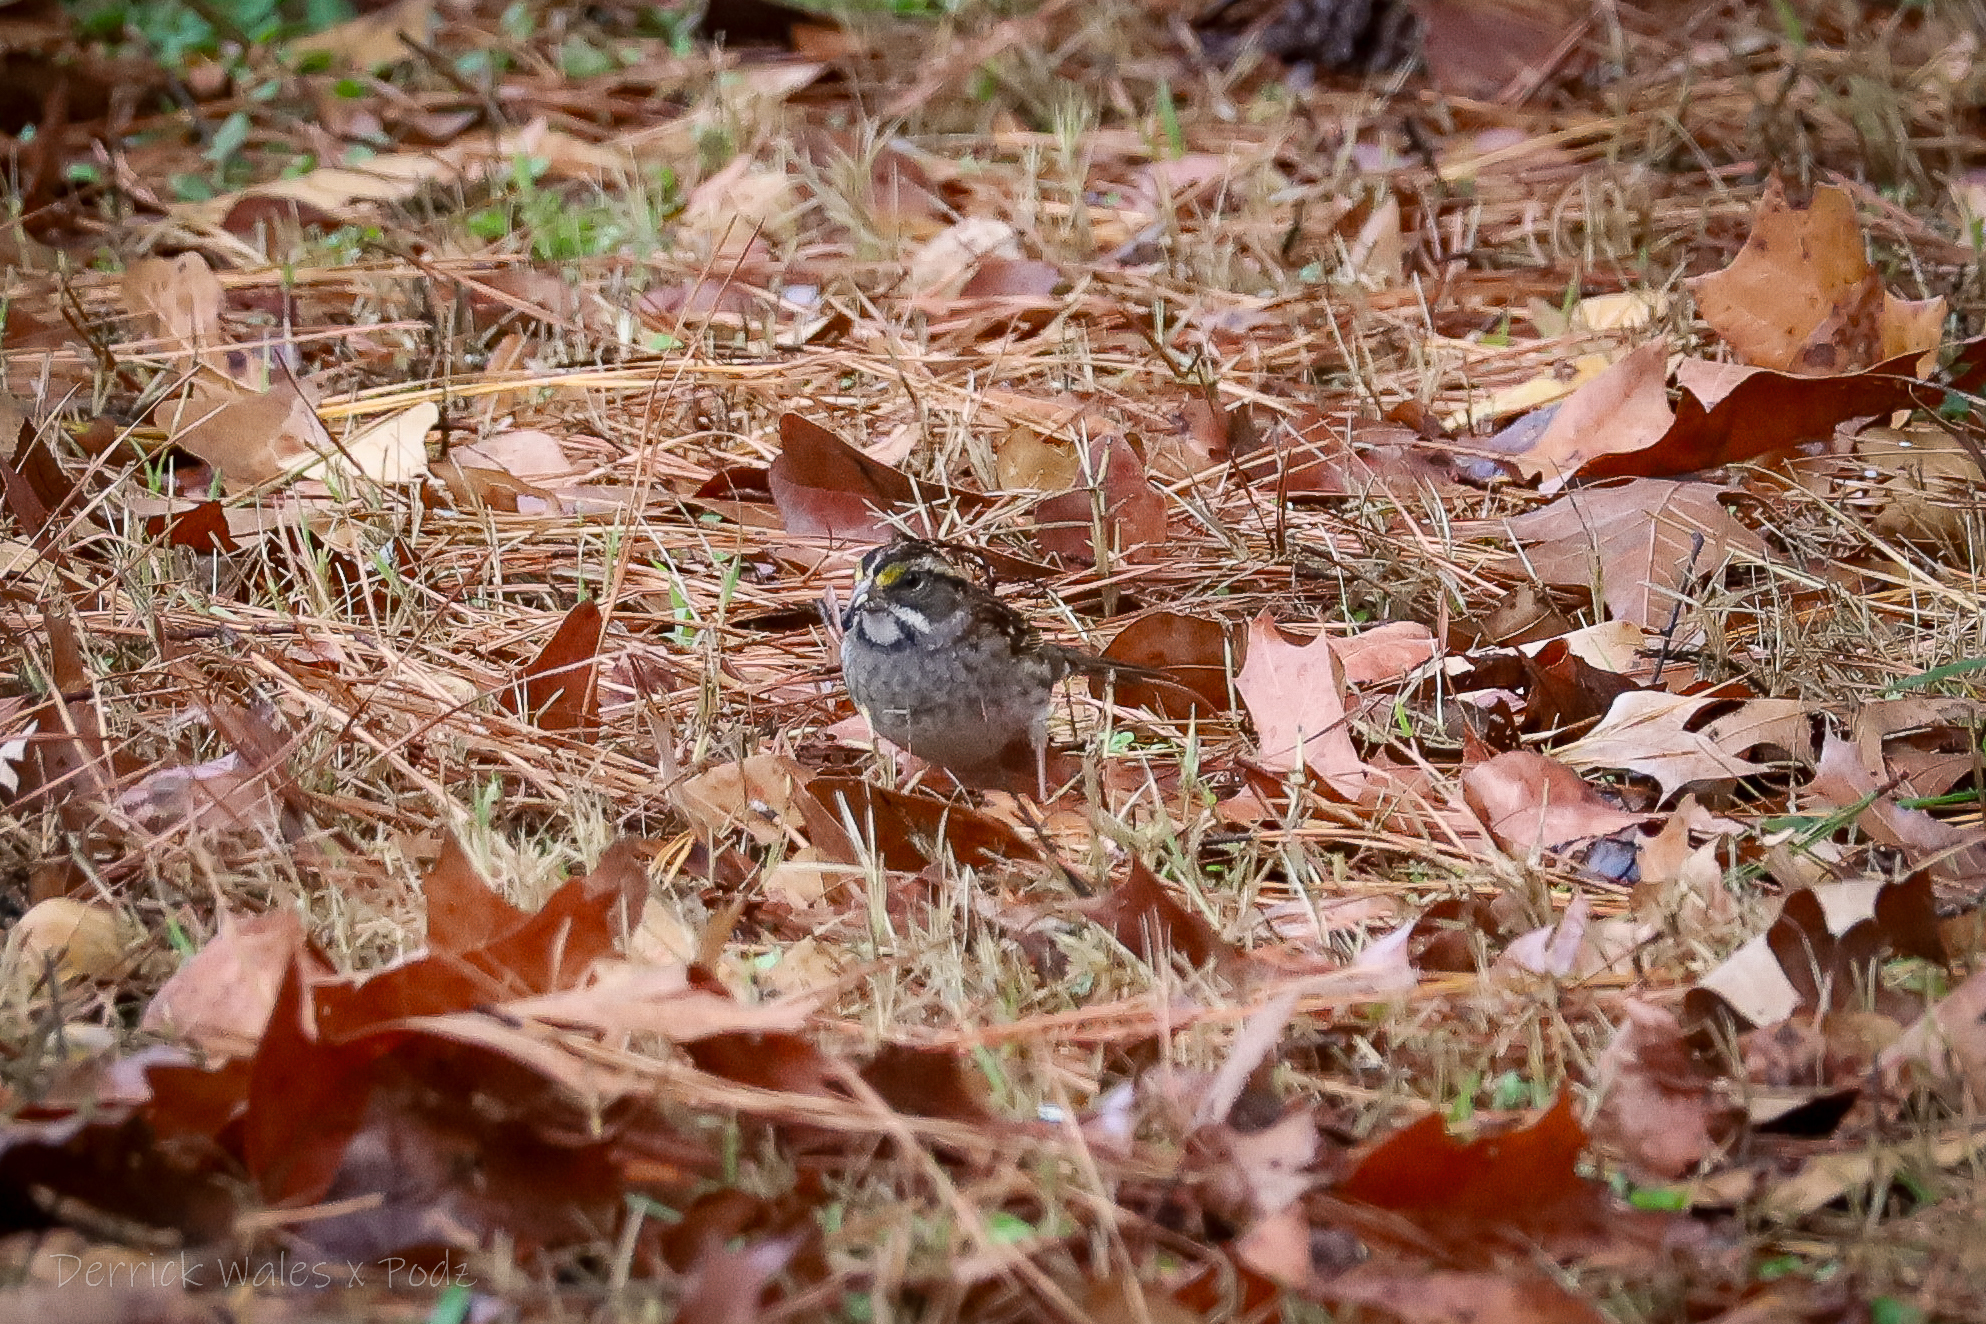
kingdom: Animalia
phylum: Chordata
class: Aves
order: Passeriformes
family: Passerellidae
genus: Zonotrichia
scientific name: Zonotrichia albicollis
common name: White-throated sparrow
